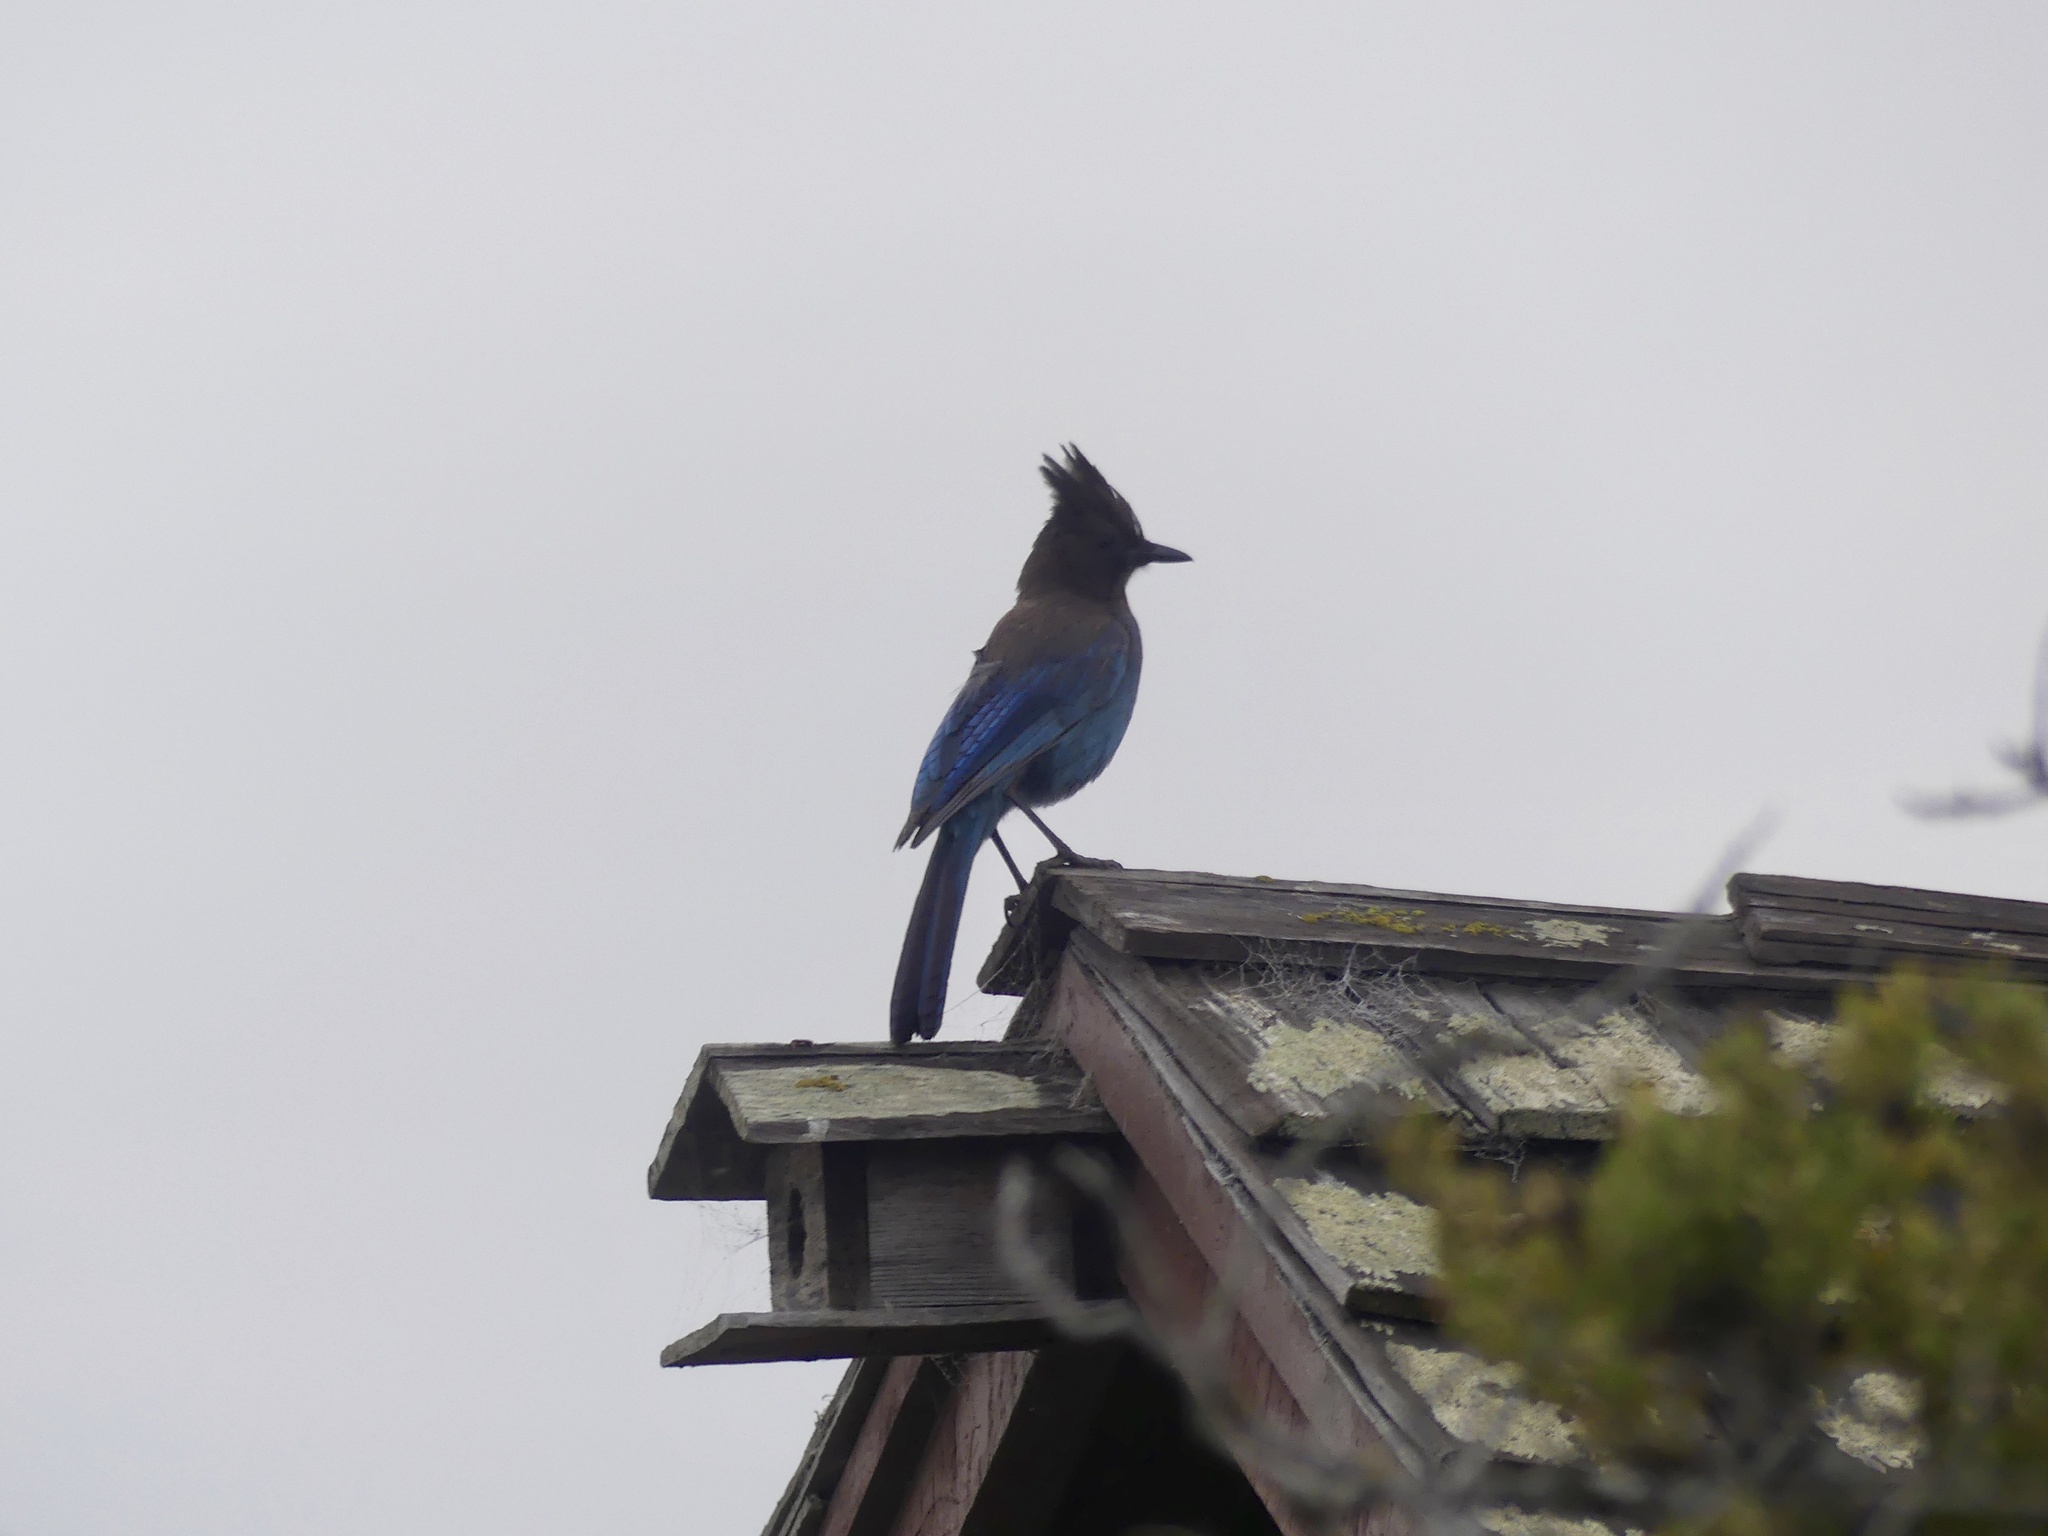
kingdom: Animalia
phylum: Chordata
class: Aves
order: Passeriformes
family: Corvidae
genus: Cyanocitta
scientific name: Cyanocitta stelleri
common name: Steller's jay
